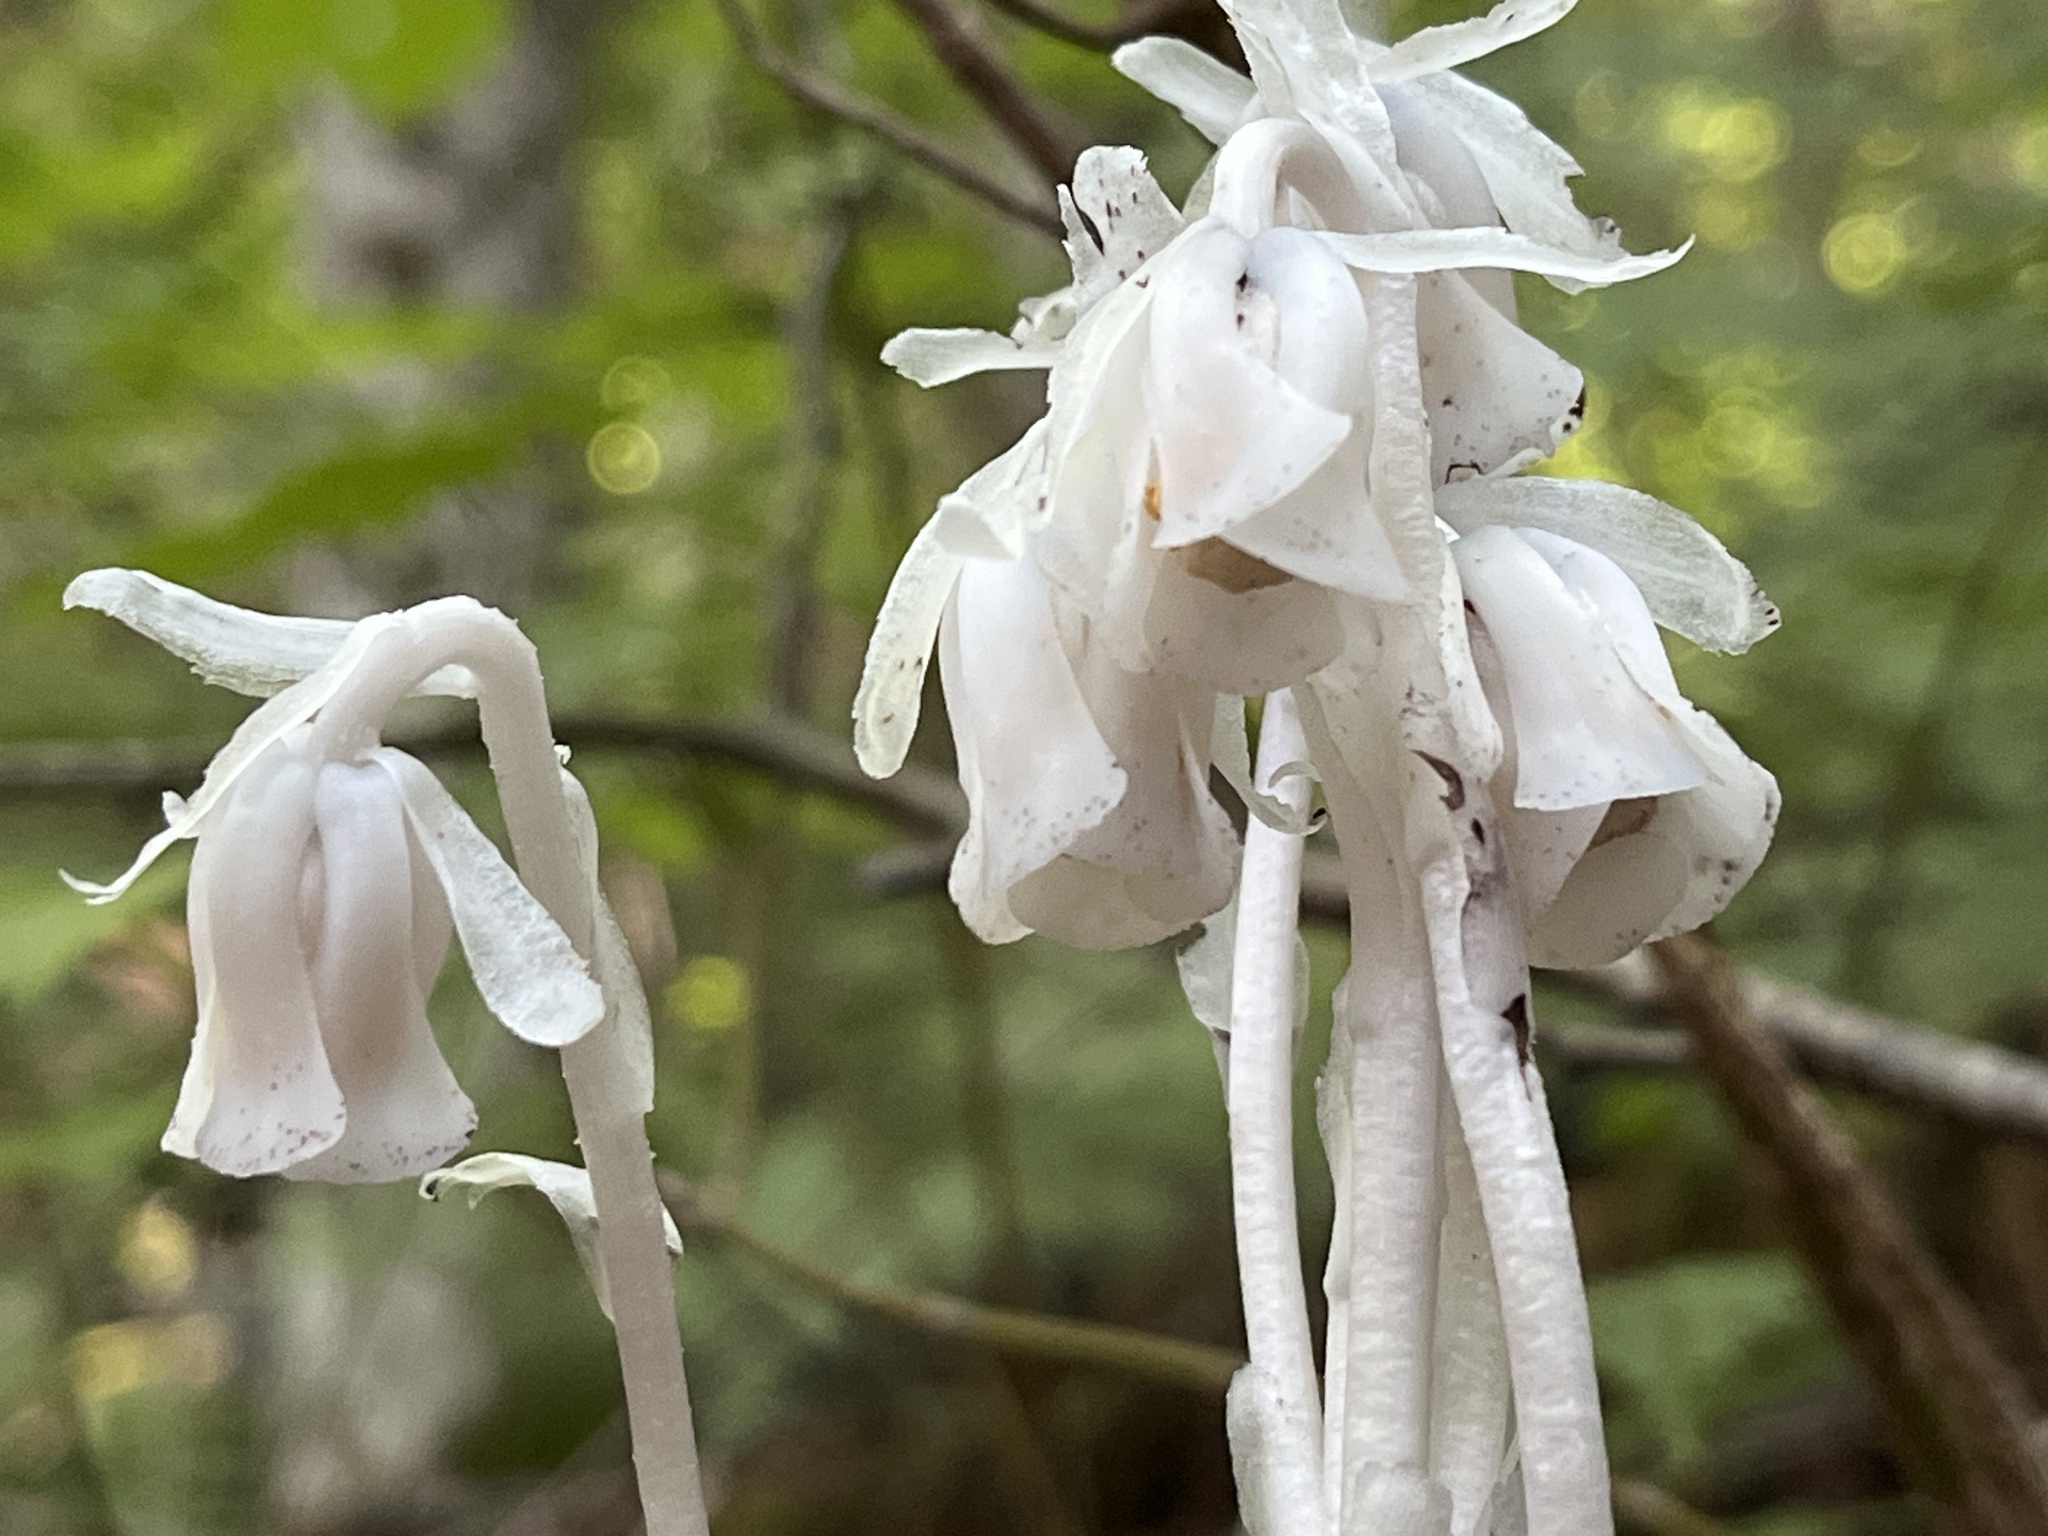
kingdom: Plantae
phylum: Tracheophyta
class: Magnoliopsida
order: Ericales
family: Ericaceae
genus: Monotropa
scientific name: Monotropa uniflora
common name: Convulsion root
